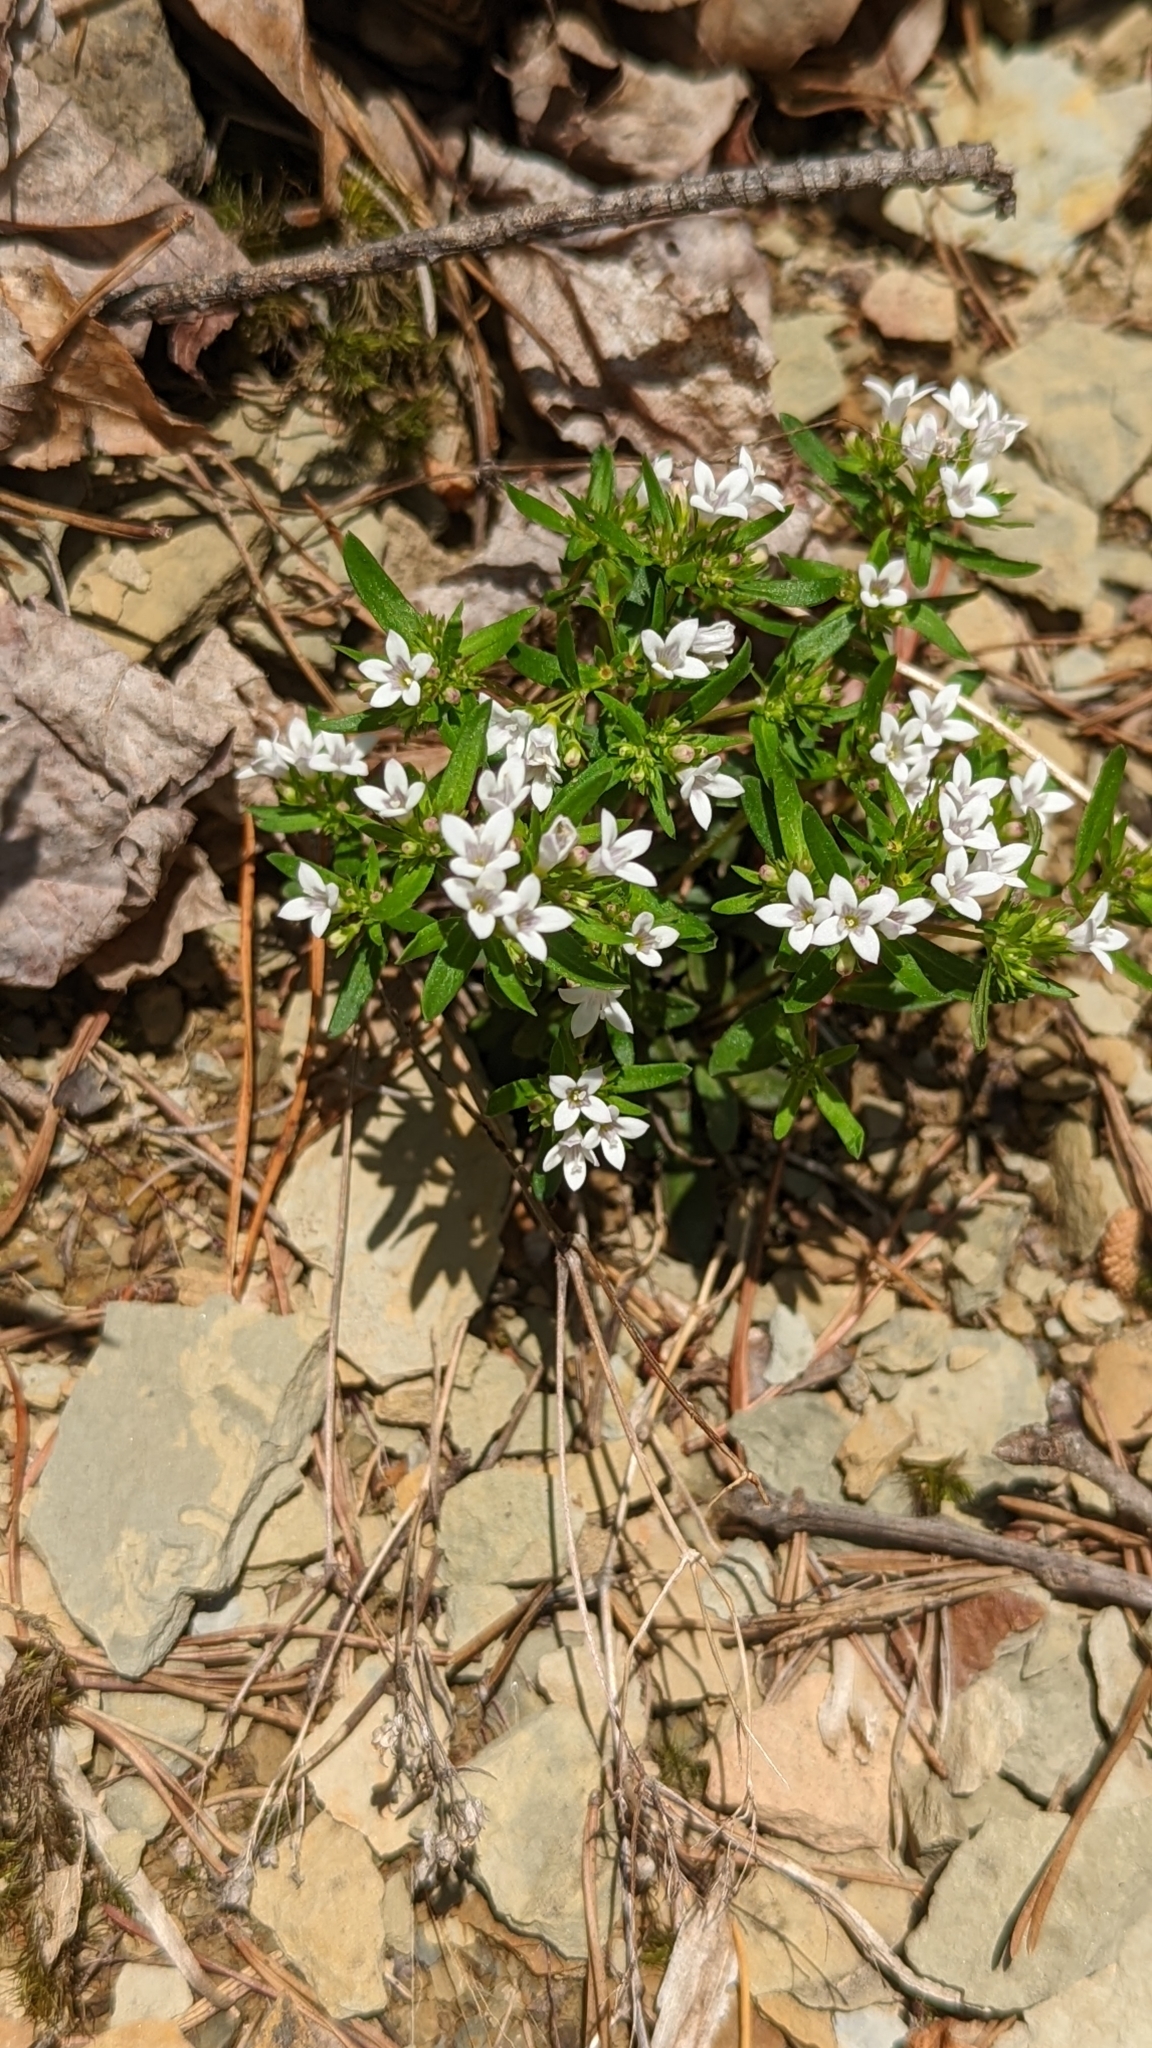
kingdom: Plantae
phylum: Tracheophyta
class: Magnoliopsida
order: Gentianales
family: Rubiaceae
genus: Houstonia
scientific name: Houstonia canadensis
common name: Fringed houstonia
